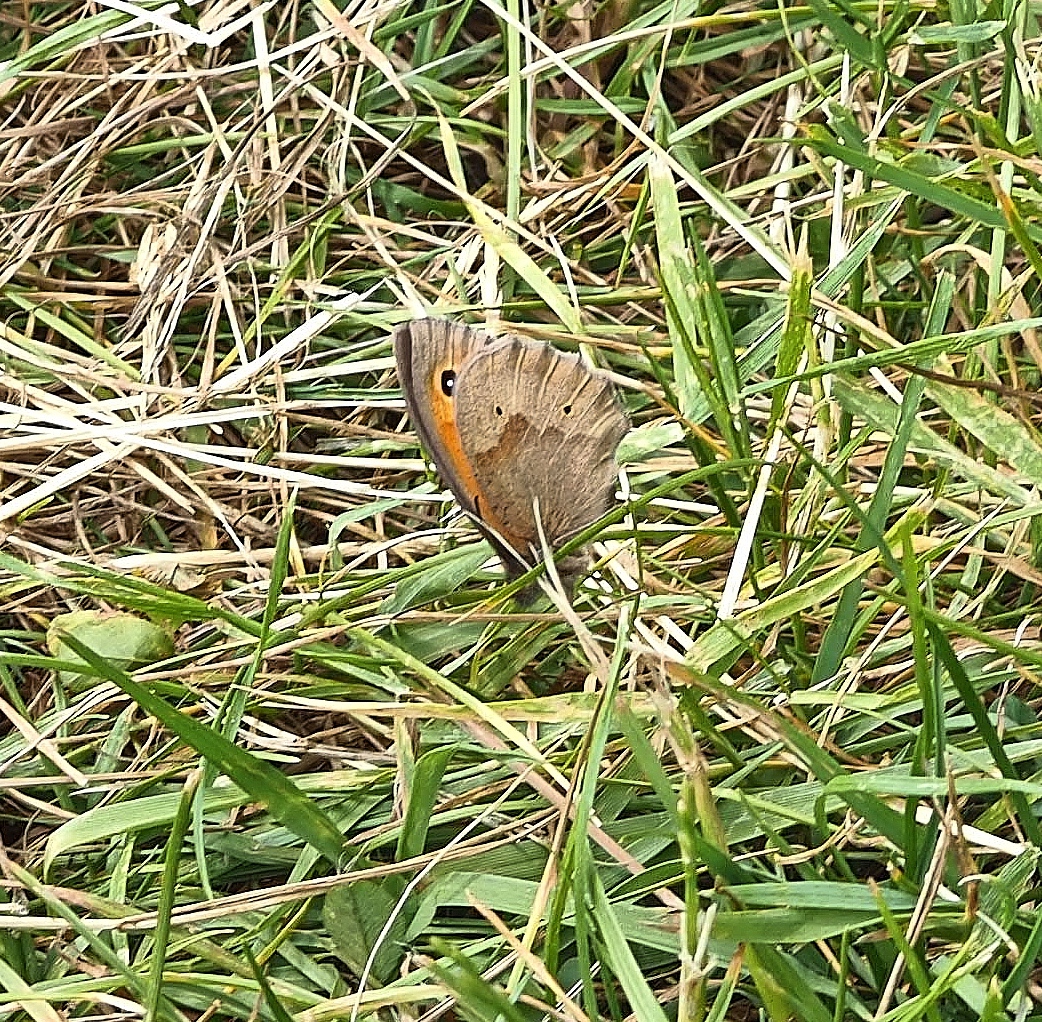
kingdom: Animalia
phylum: Arthropoda
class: Insecta
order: Lepidoptera
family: Nymphalidae
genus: Maniola
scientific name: Maniola jurtina
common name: Meadow brown
